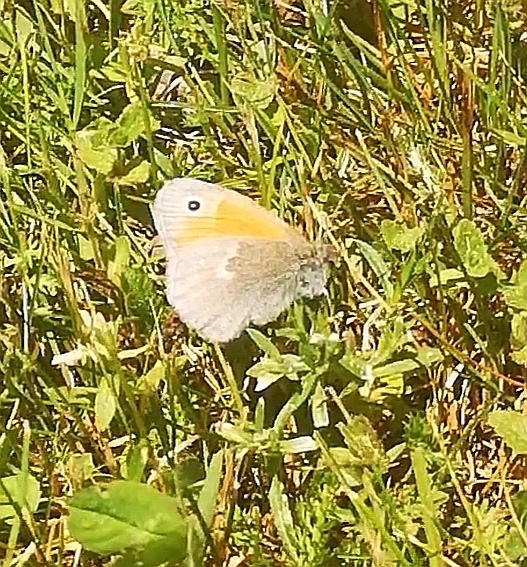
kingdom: Animalia
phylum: Arthropoda
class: Insecta
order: Lepidoptera
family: Nymphalidae
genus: Coenonympha
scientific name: Coenonympha pamphilus
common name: Small heath
